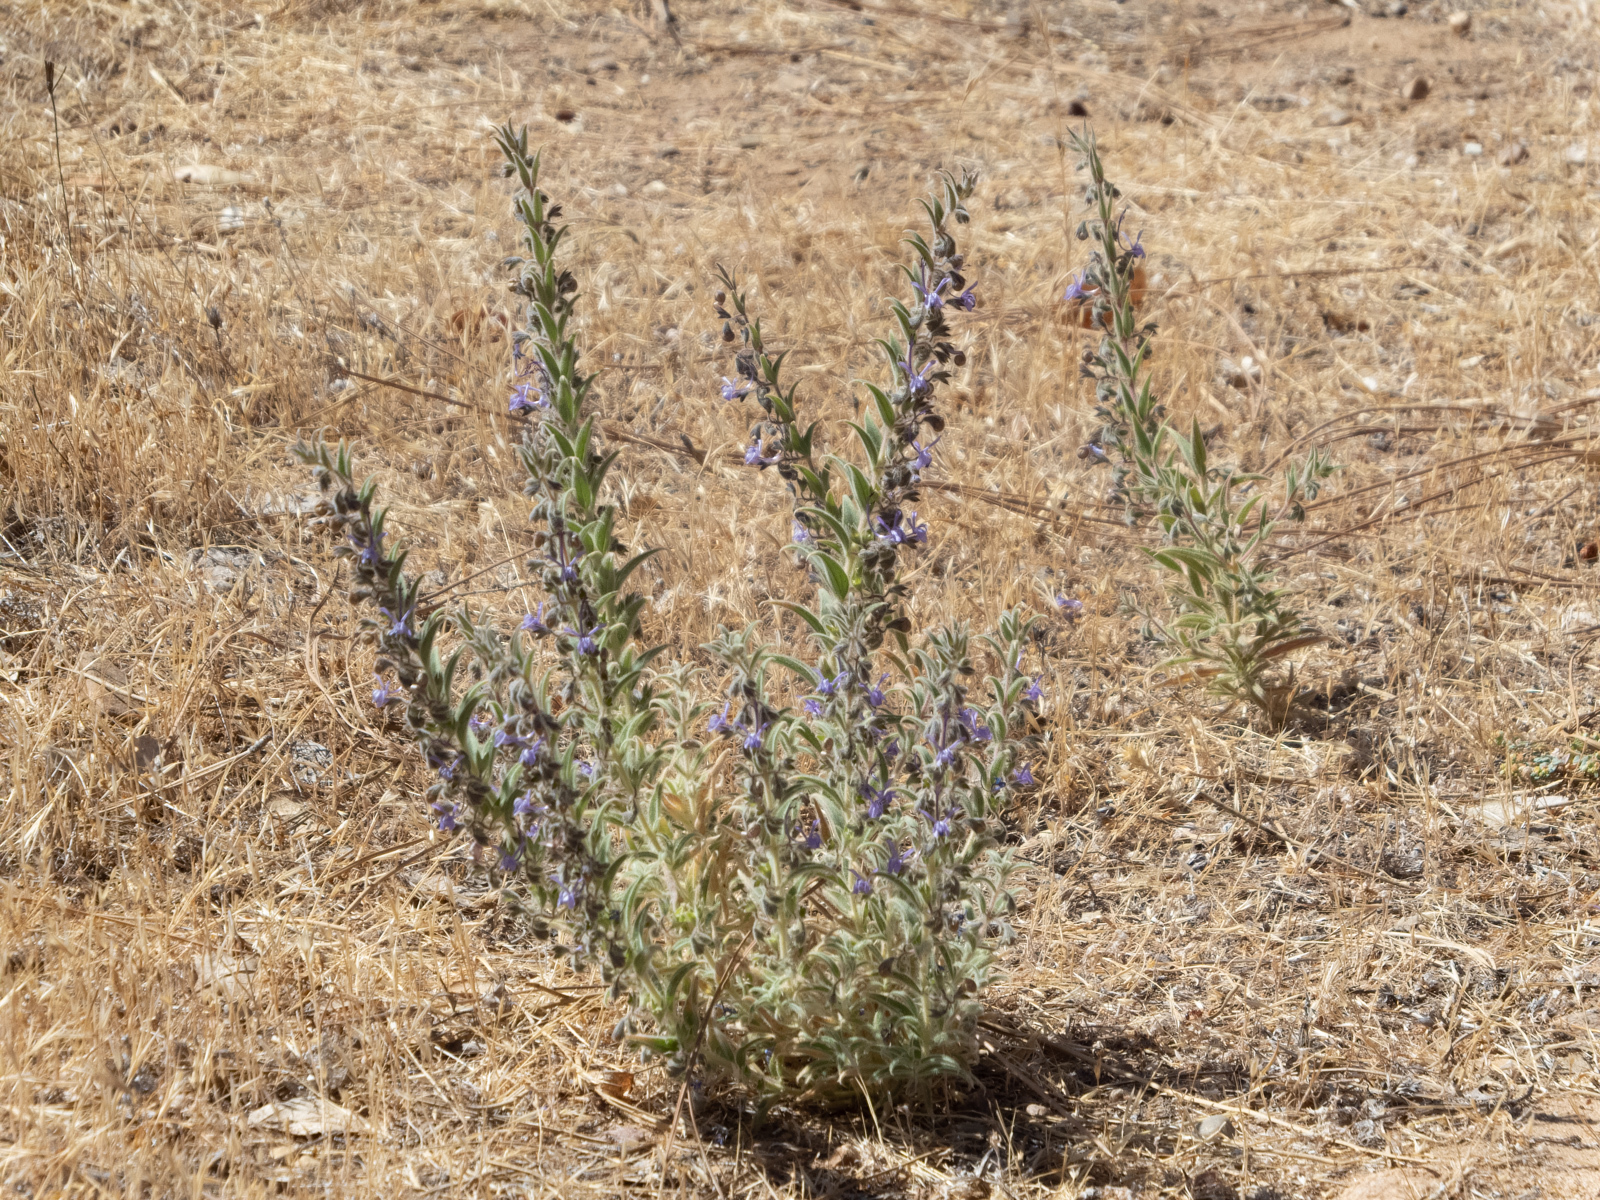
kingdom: Plantae
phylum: Tracheophyta
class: Magnoliopsida
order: Lamiales
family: Lamiaceae
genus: Trichostema
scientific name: Trichostema lanceolatum
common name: Vinegar-weed
